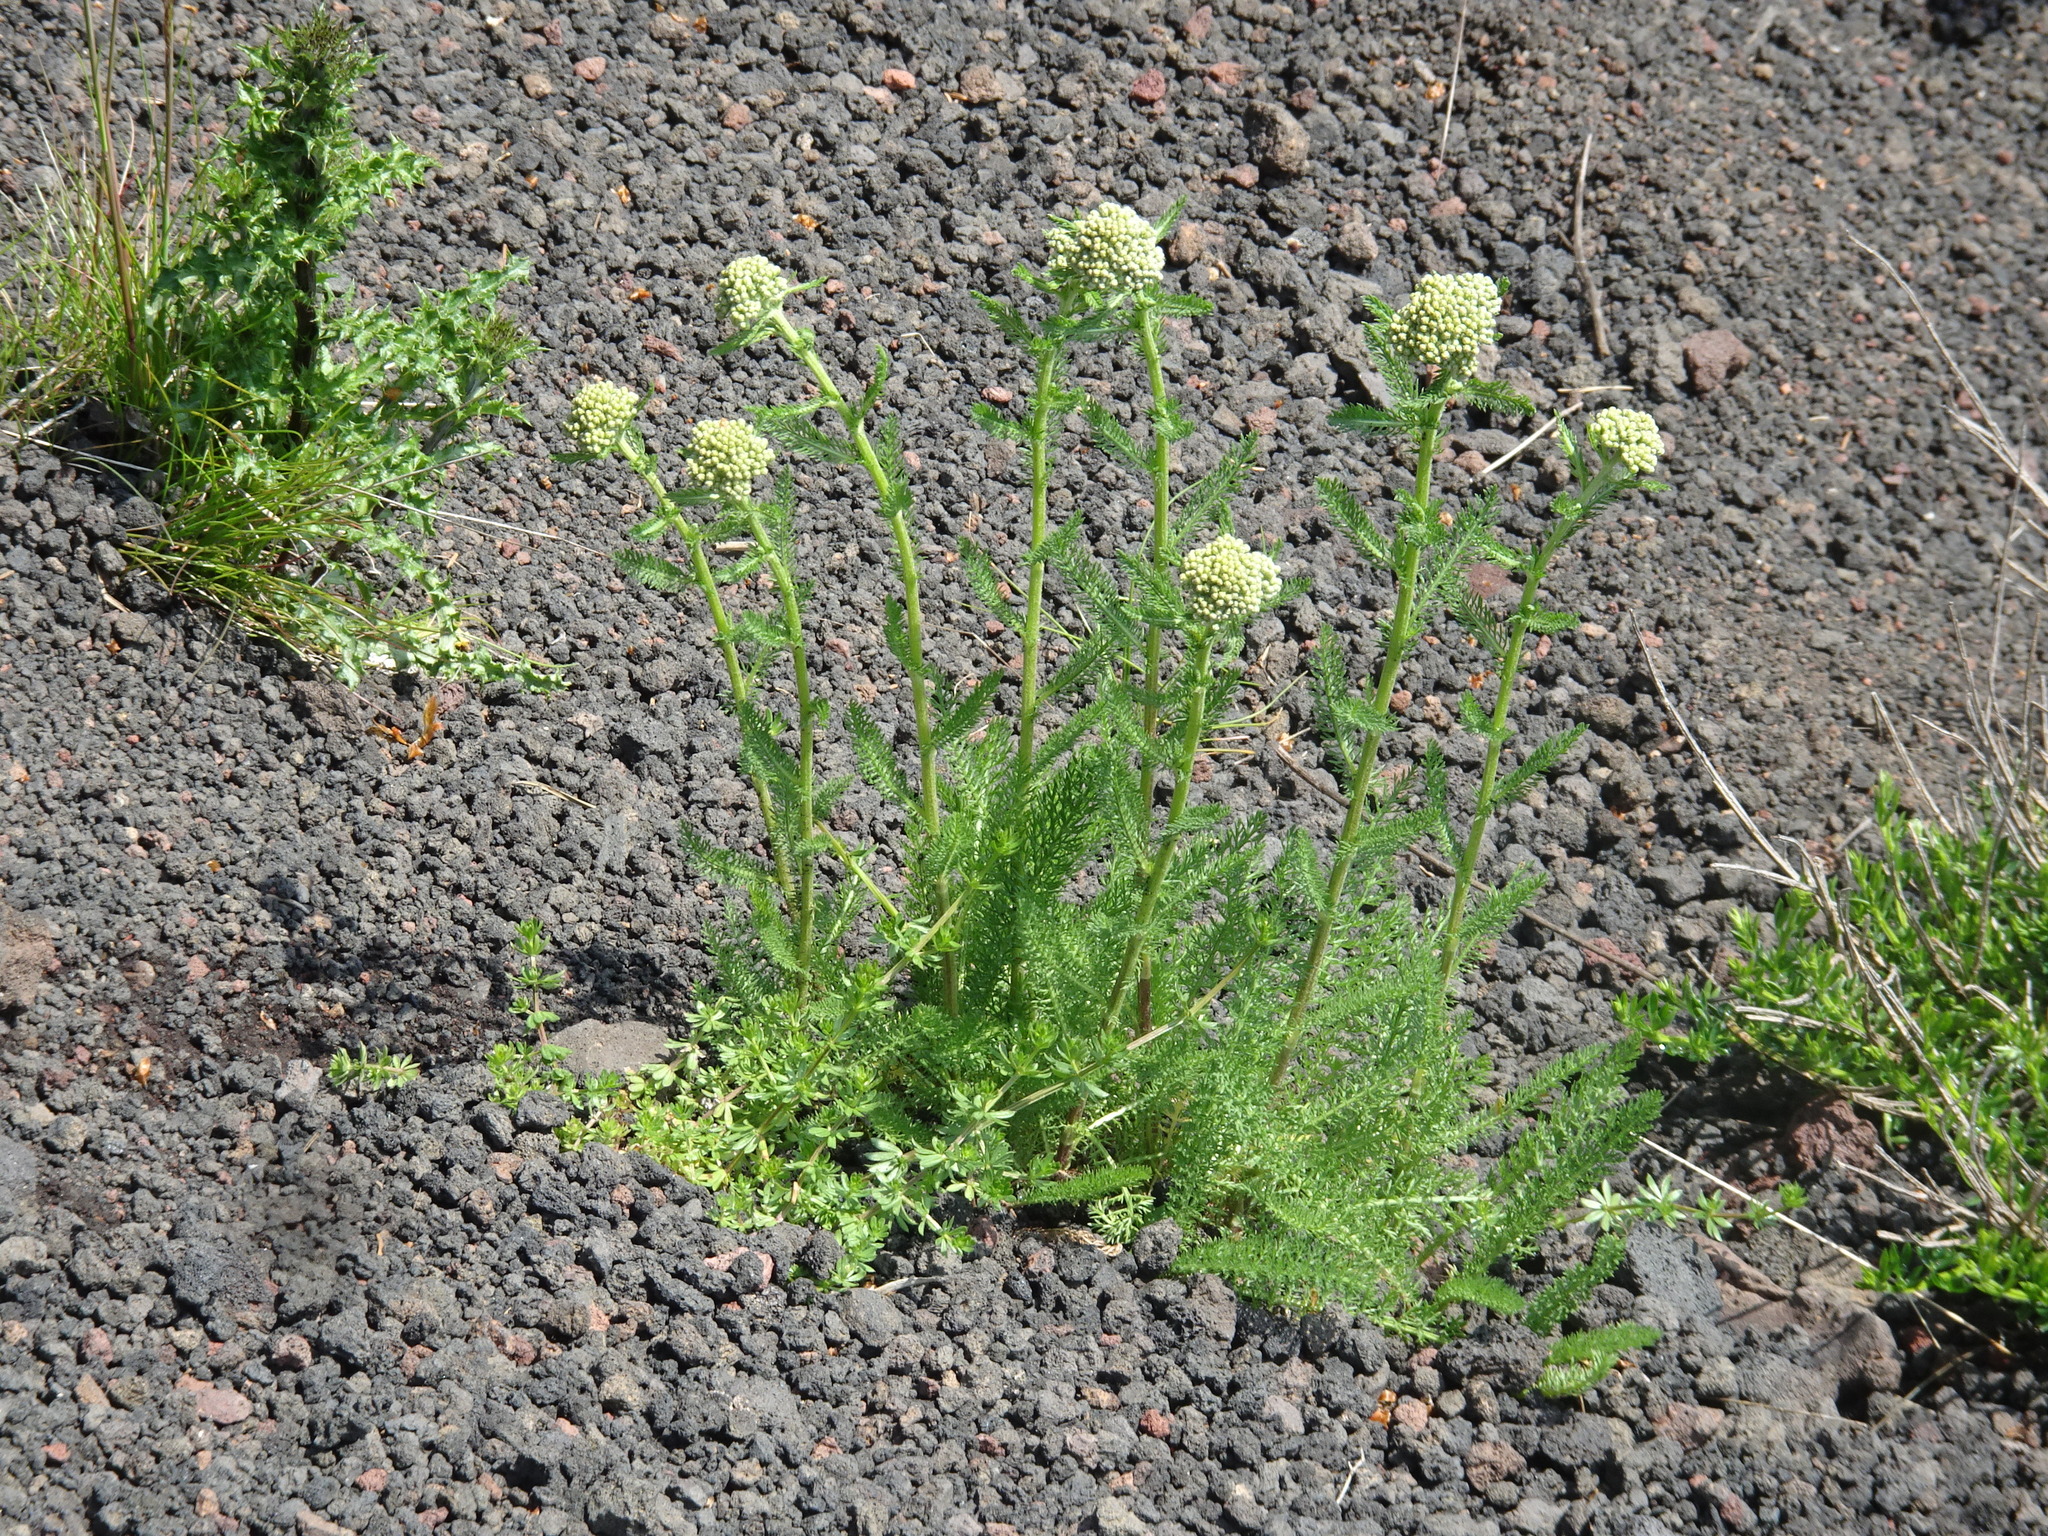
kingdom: Plantae
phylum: Tracheophyta
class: Magnoliopsida
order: Asterales
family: Asteraceae
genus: Achillea
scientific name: Achillea millefolium
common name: Yarrow
